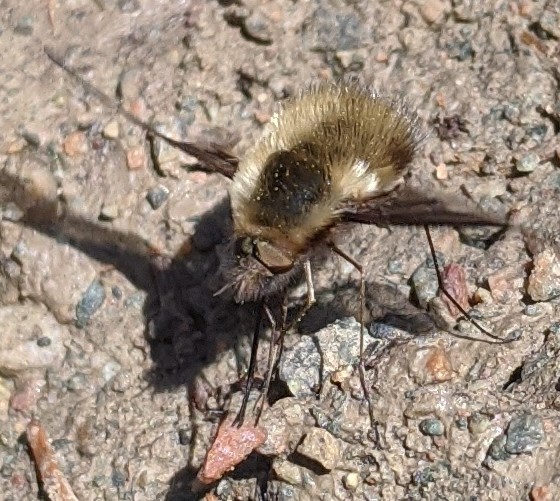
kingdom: Animalia
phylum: Arthropoda
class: Insecta
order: Diptera
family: Bombyliidae
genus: Bombylius
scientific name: Bombylius major
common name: Bee fly
